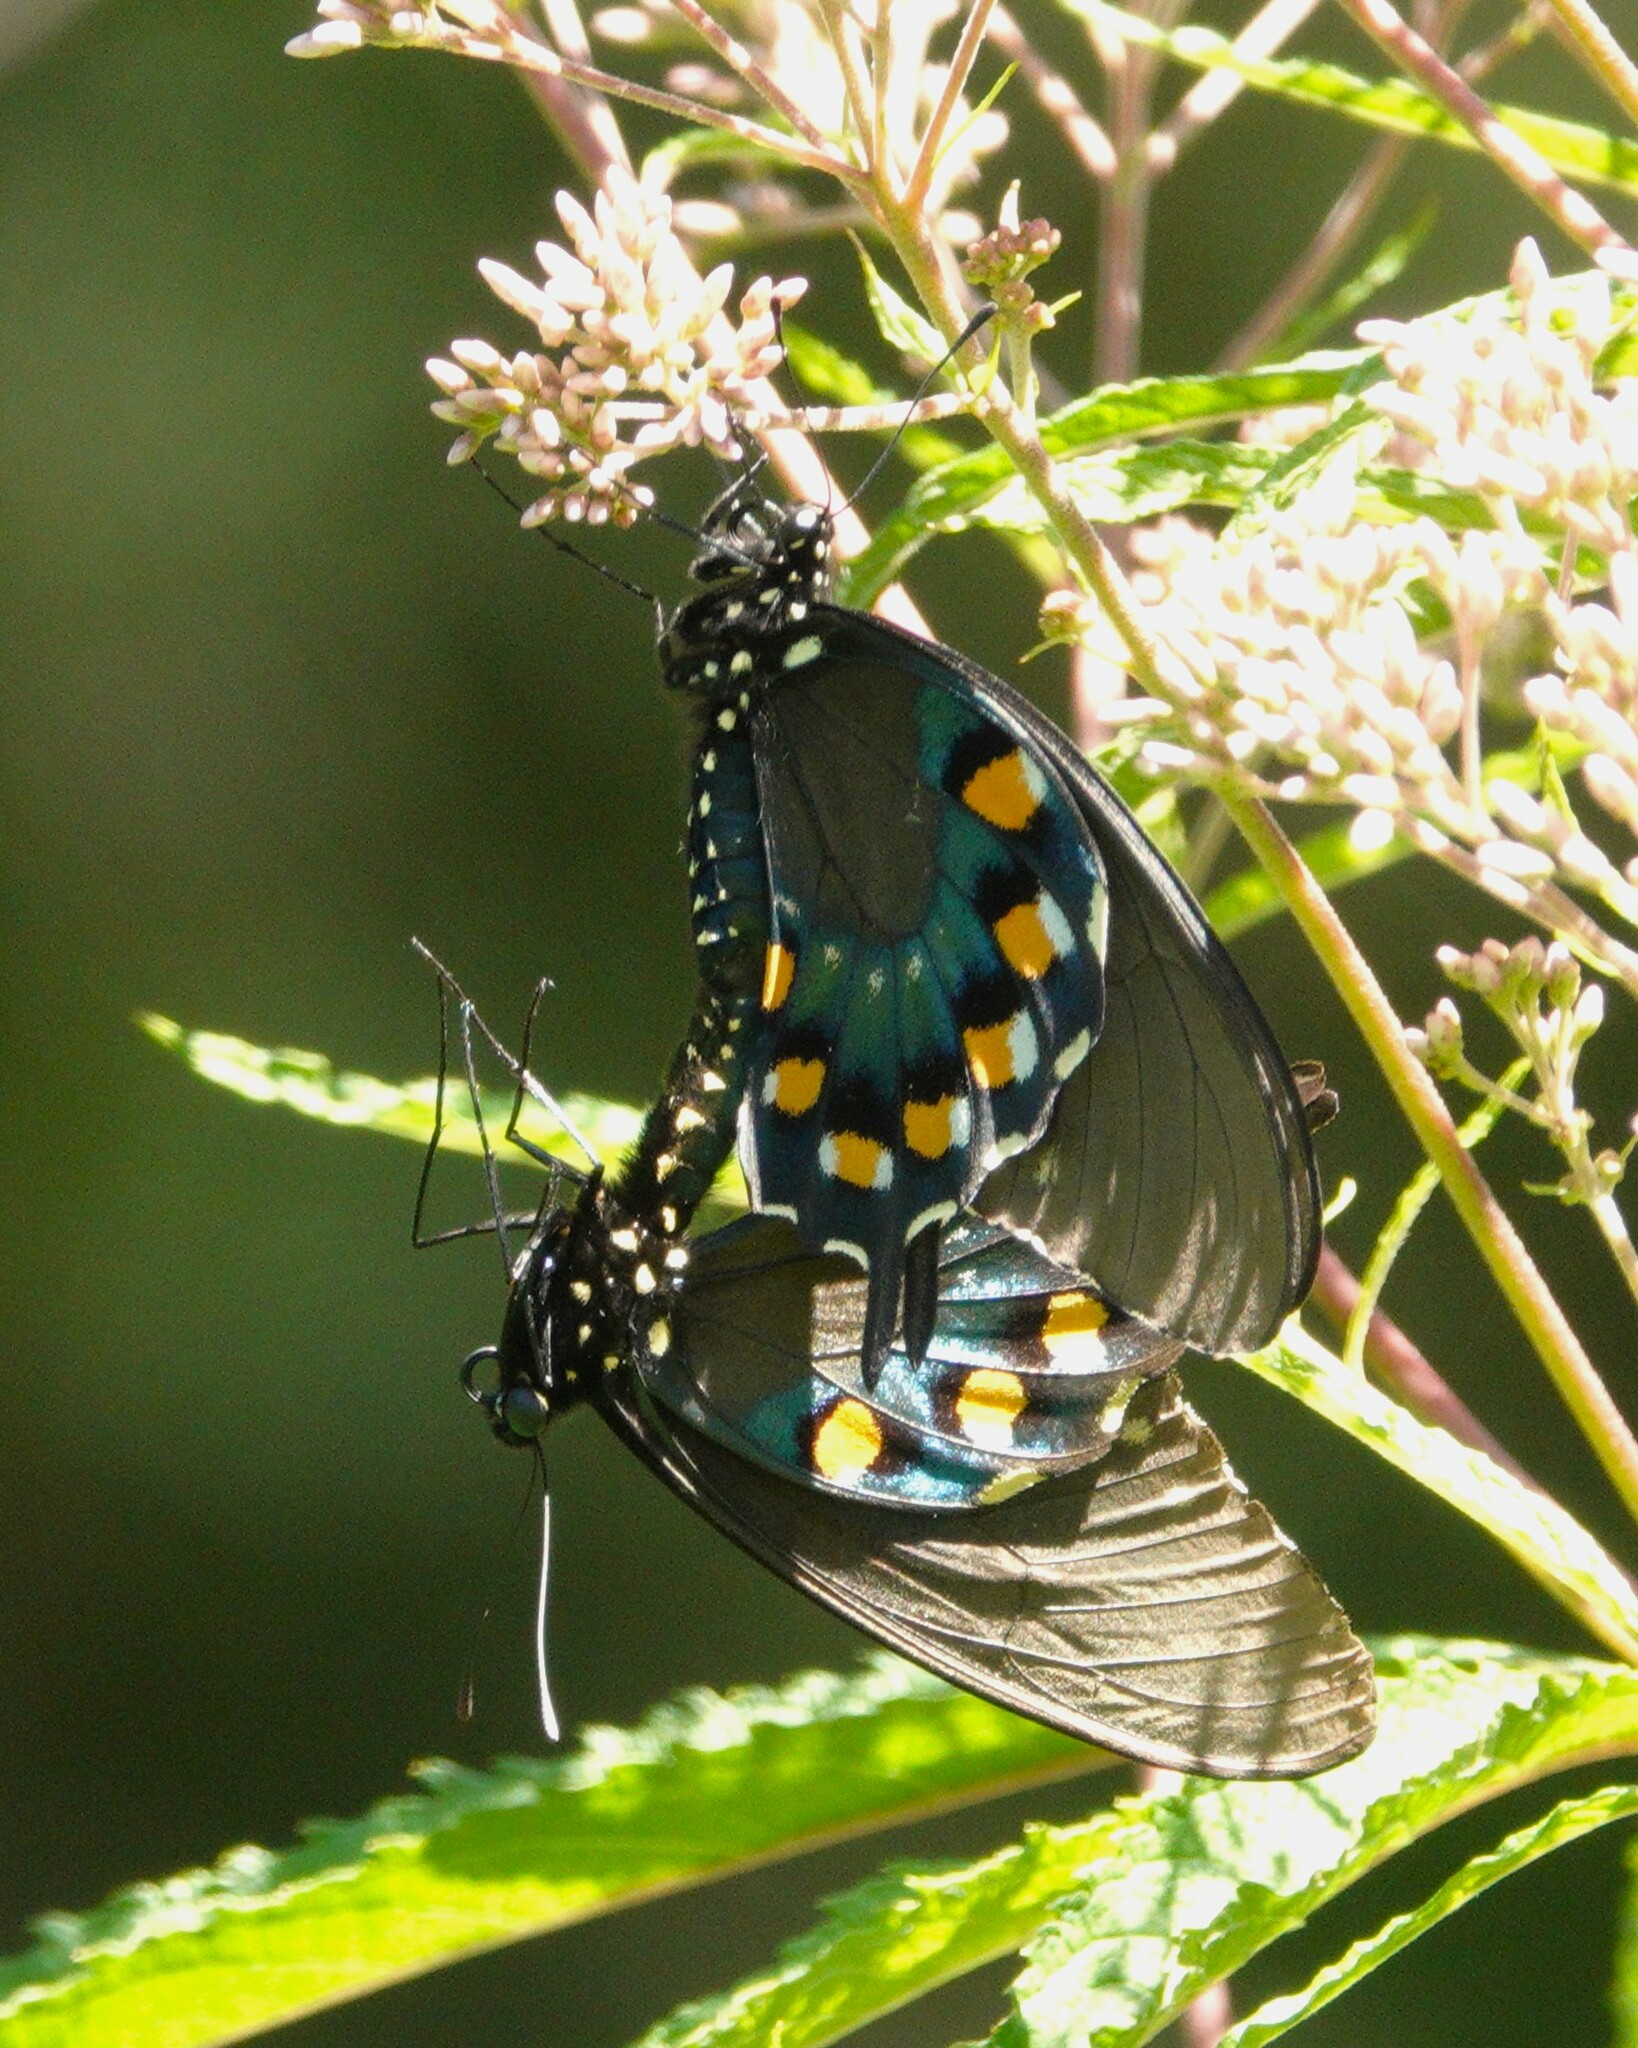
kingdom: Animalia
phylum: Arthropoda
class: Insecta
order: Lepidoptera
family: Papilionidae
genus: Battus
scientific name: Battus philenor
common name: Pipevine swallowtail
